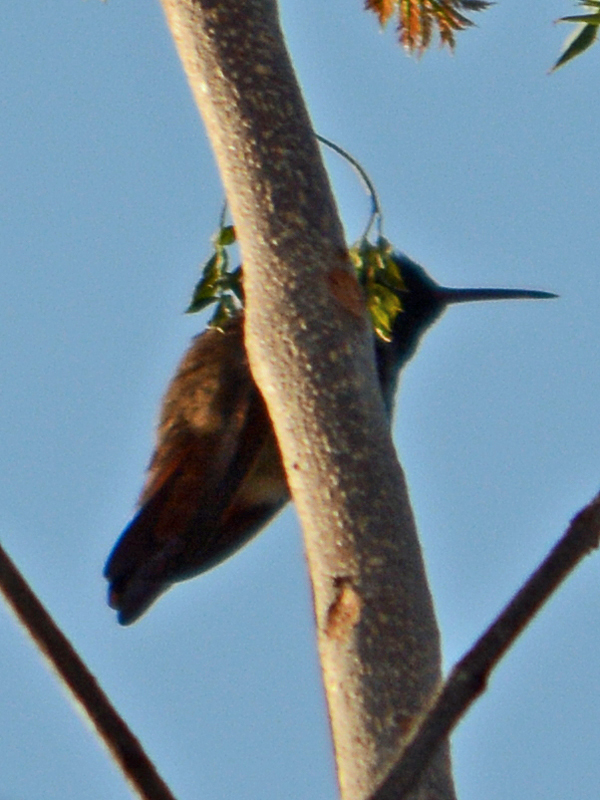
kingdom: Animalia
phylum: Chordata
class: Aves
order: Apodiformes
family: Trochilidae
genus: Saucerottia
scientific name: Saucerottia beryllina
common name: Berylline hummingbird
